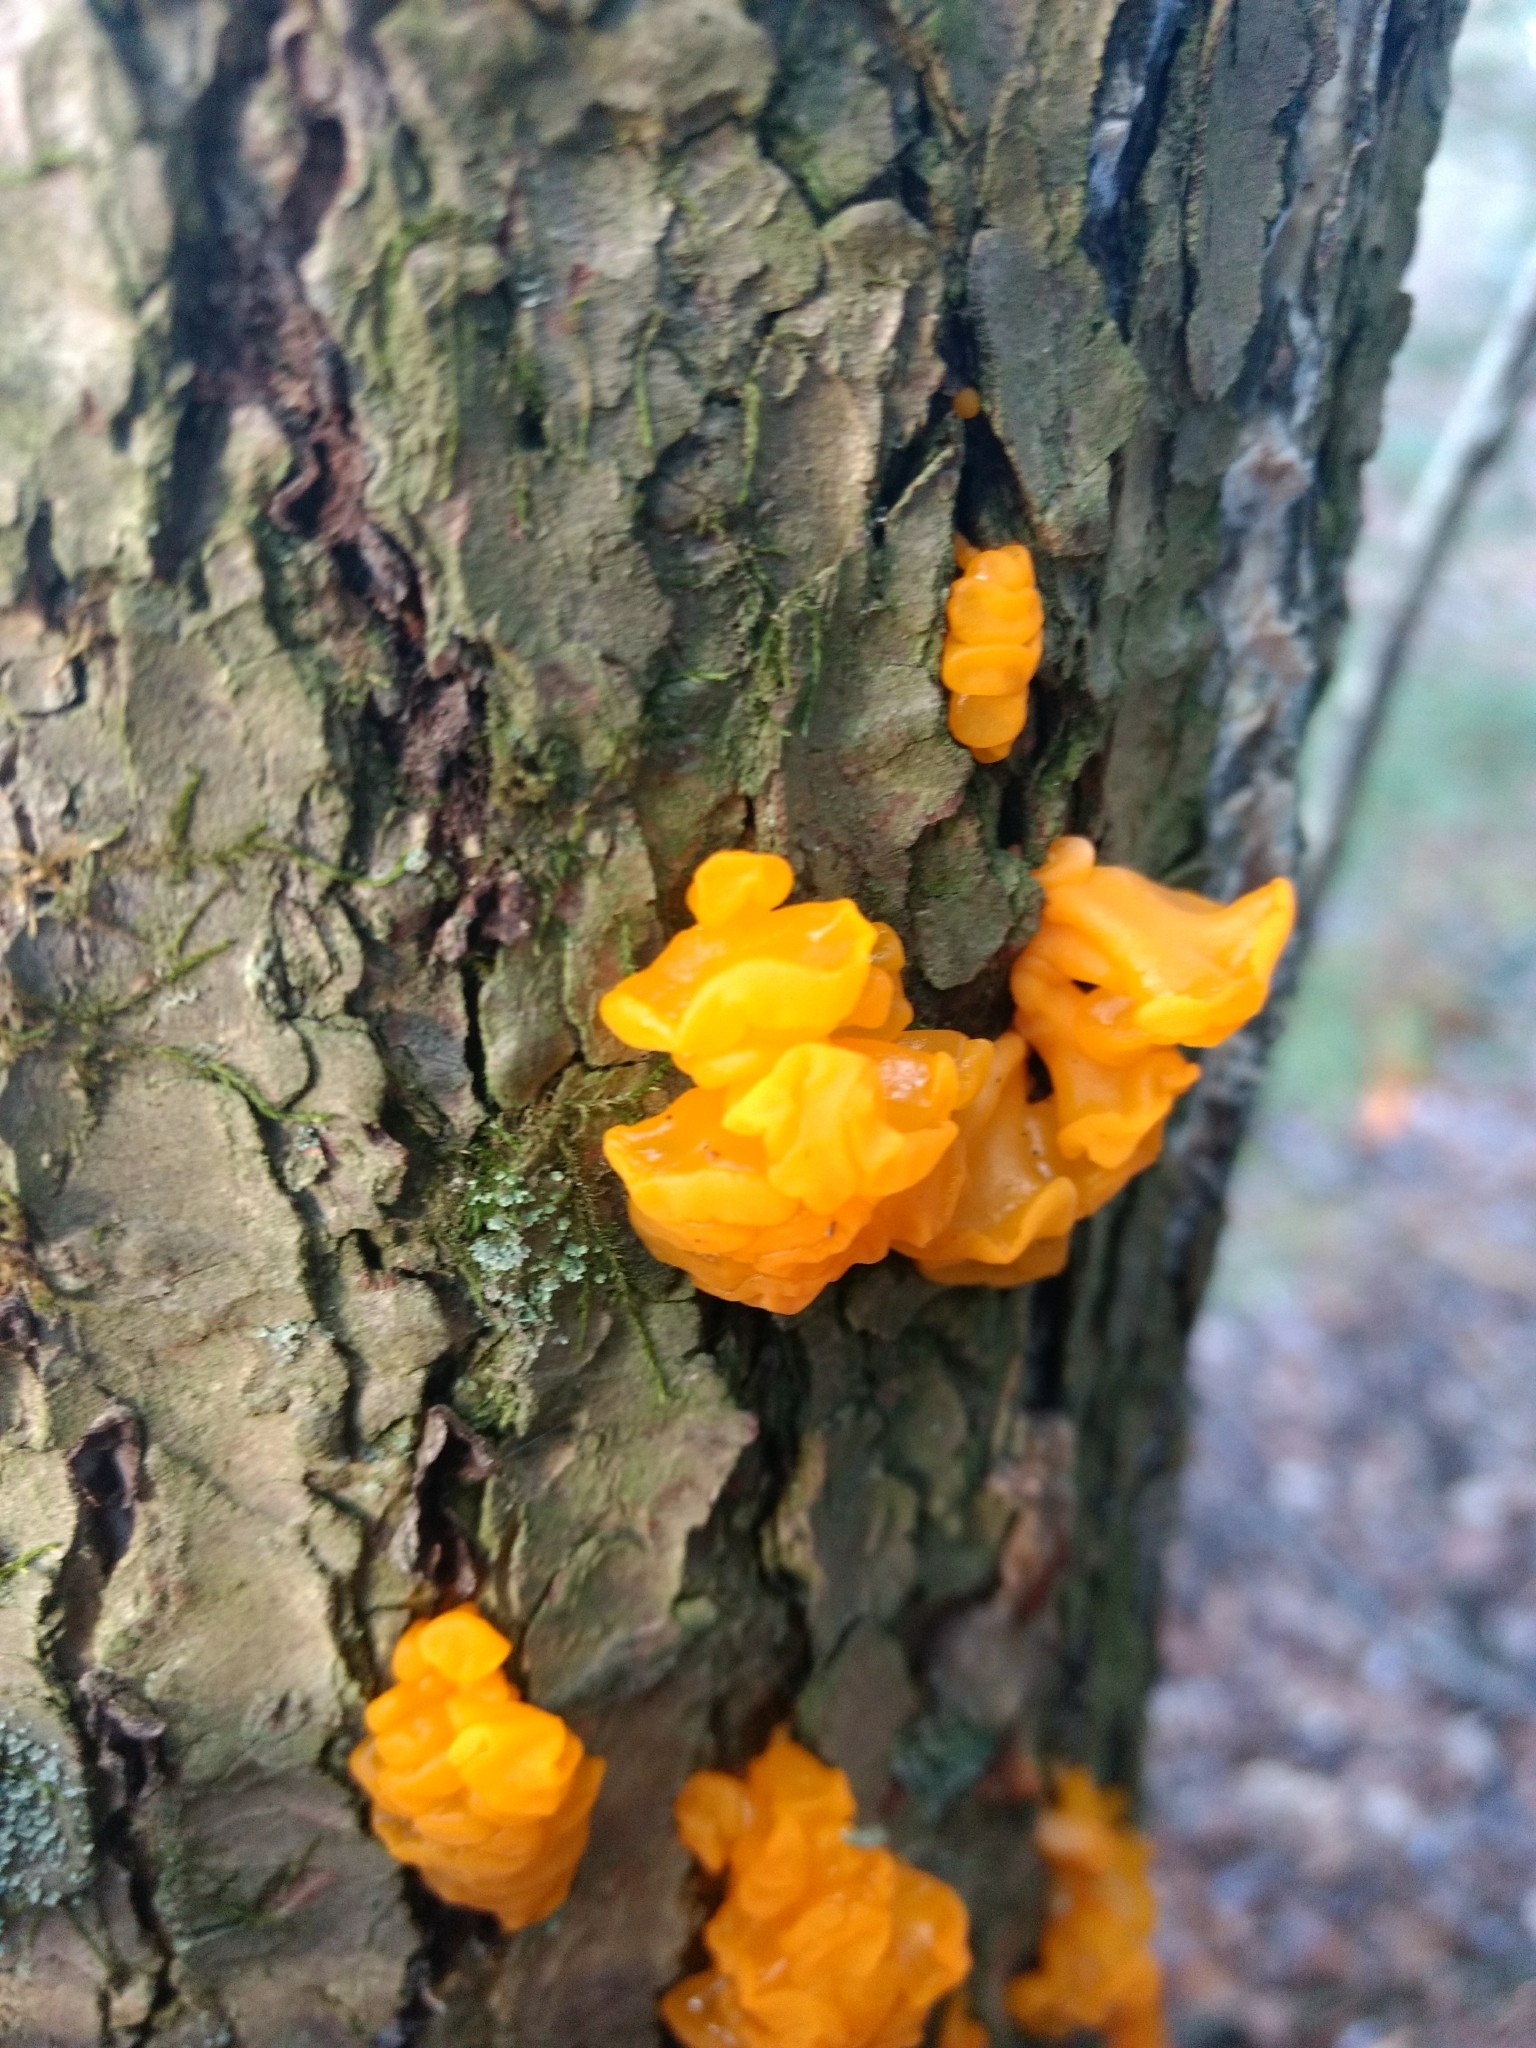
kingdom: Fungi
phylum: Basidiomycota
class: Tremellomycetes
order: Tremellales
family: Tremellaceae
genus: Tremella
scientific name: Tremella mesenterica
